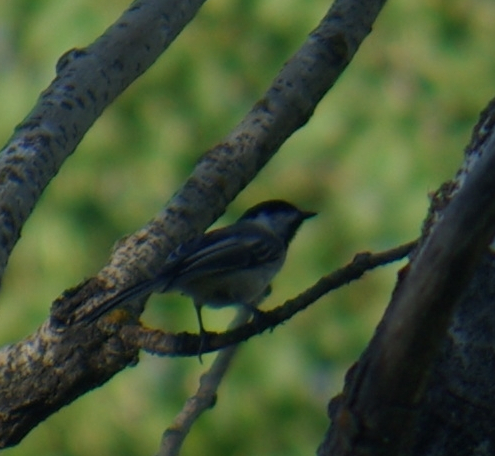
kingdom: Animalia
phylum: Chordata
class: Aves
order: Passeriformes
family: Paridae
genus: Poecile
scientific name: Poecile atricapillus
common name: Black-capped chickadee
